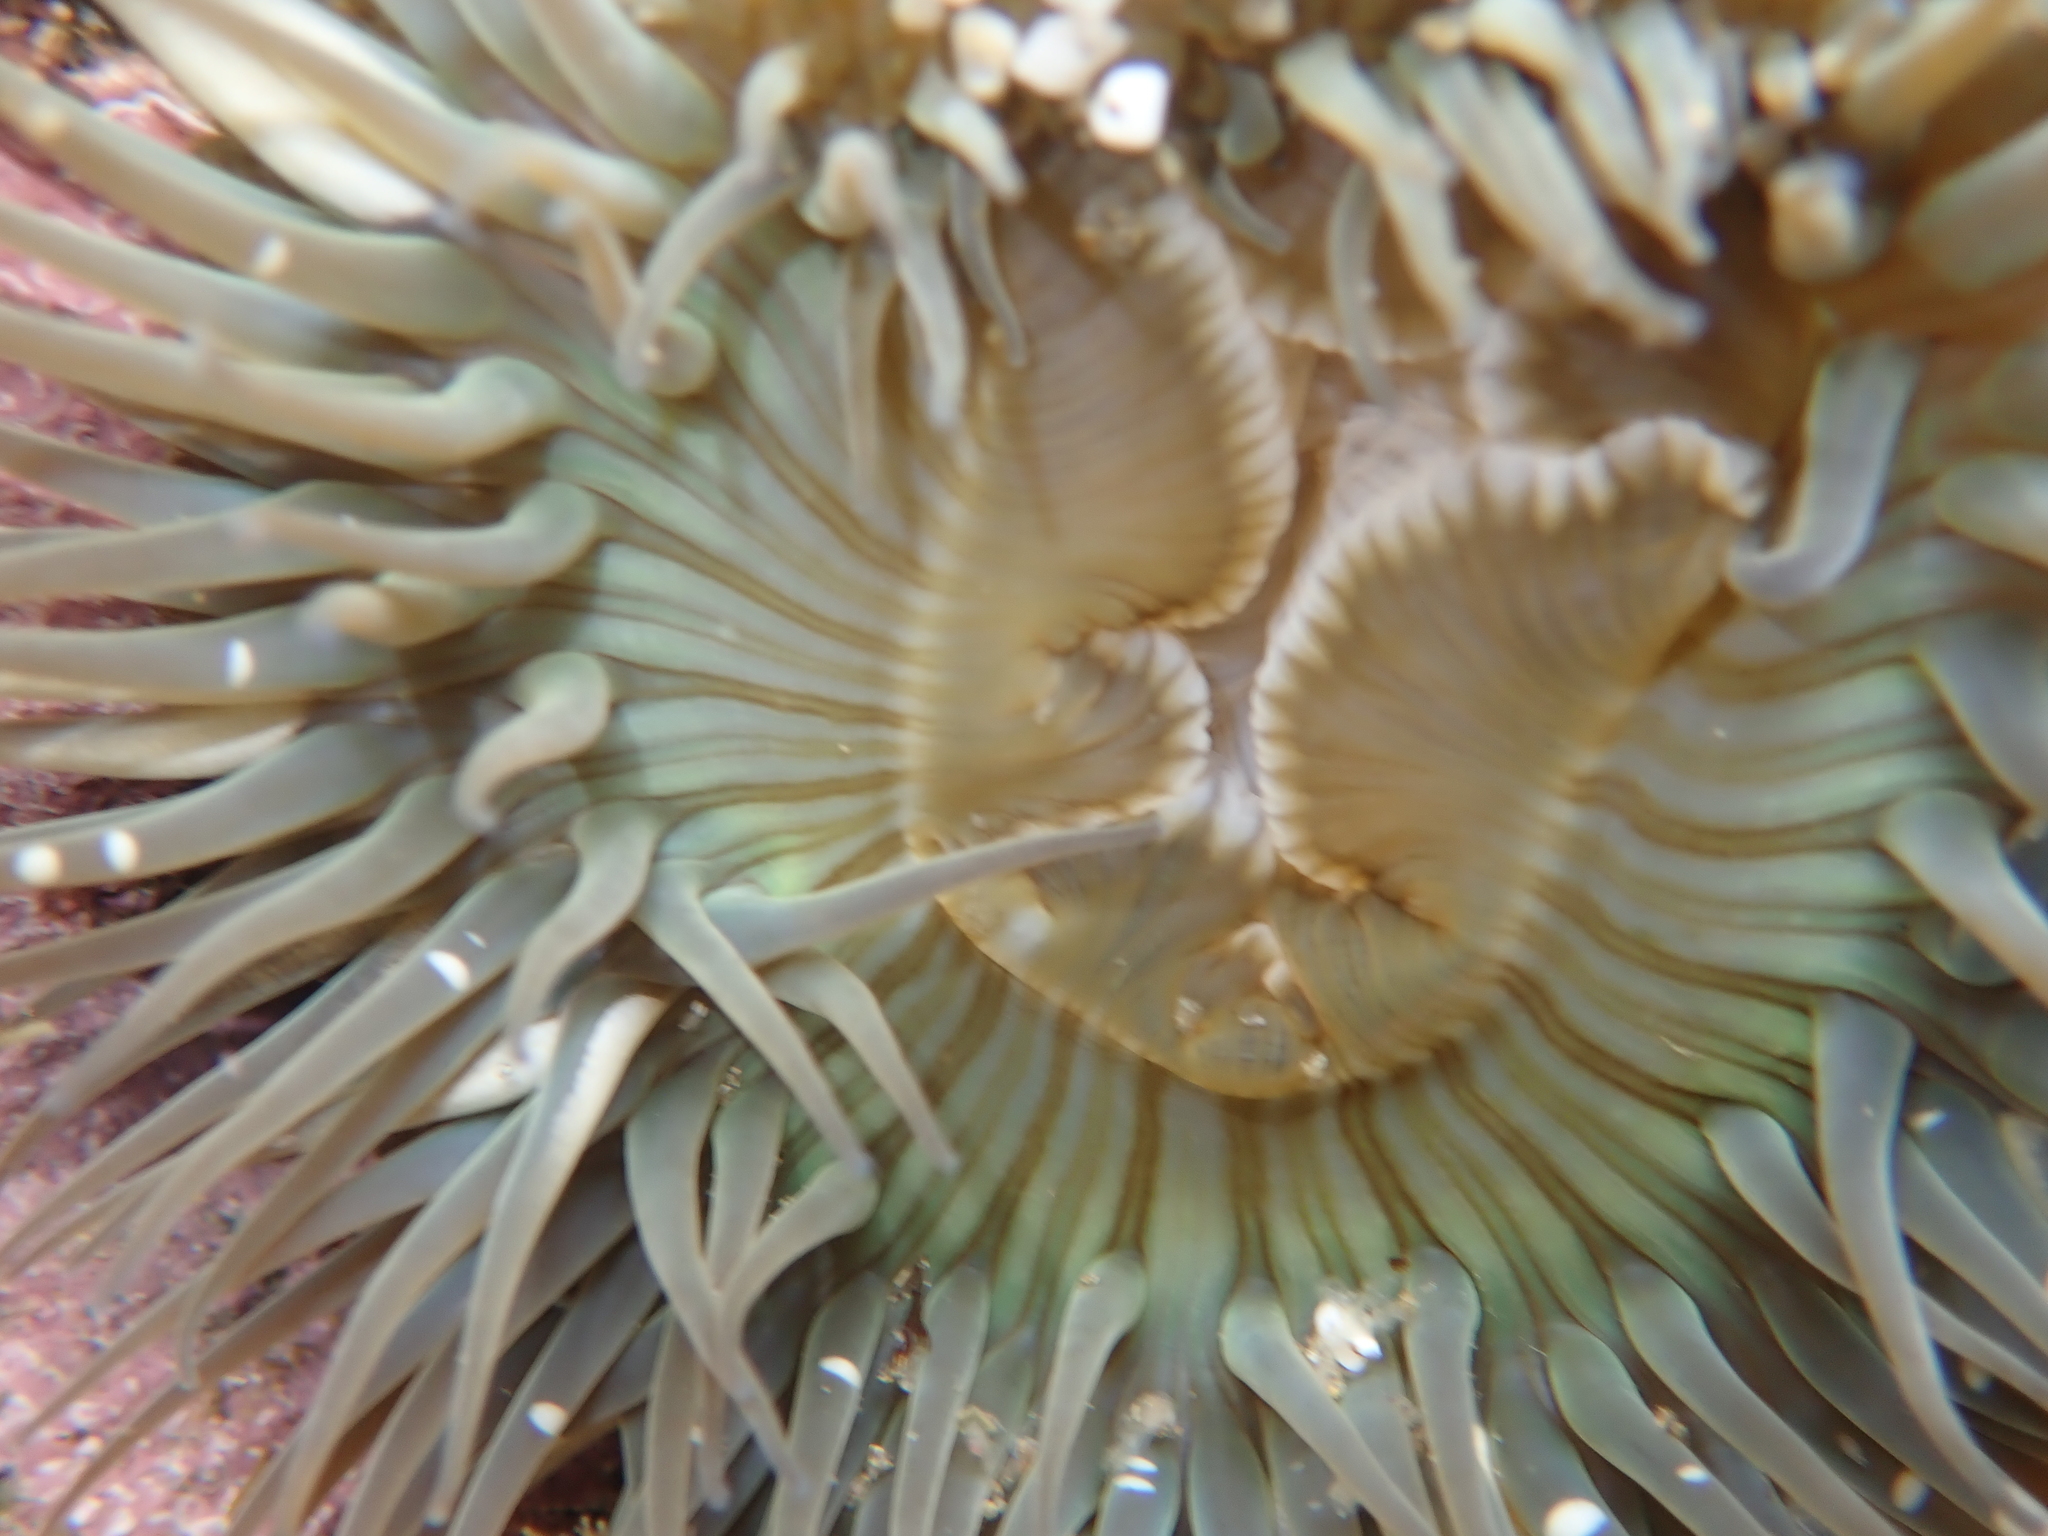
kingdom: Animalia
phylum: Cnidaria
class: Anthozoa
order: Actiniaria
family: Actiniidae
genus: Anthopleura
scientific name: Anthopleura sola
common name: Sun anemone
